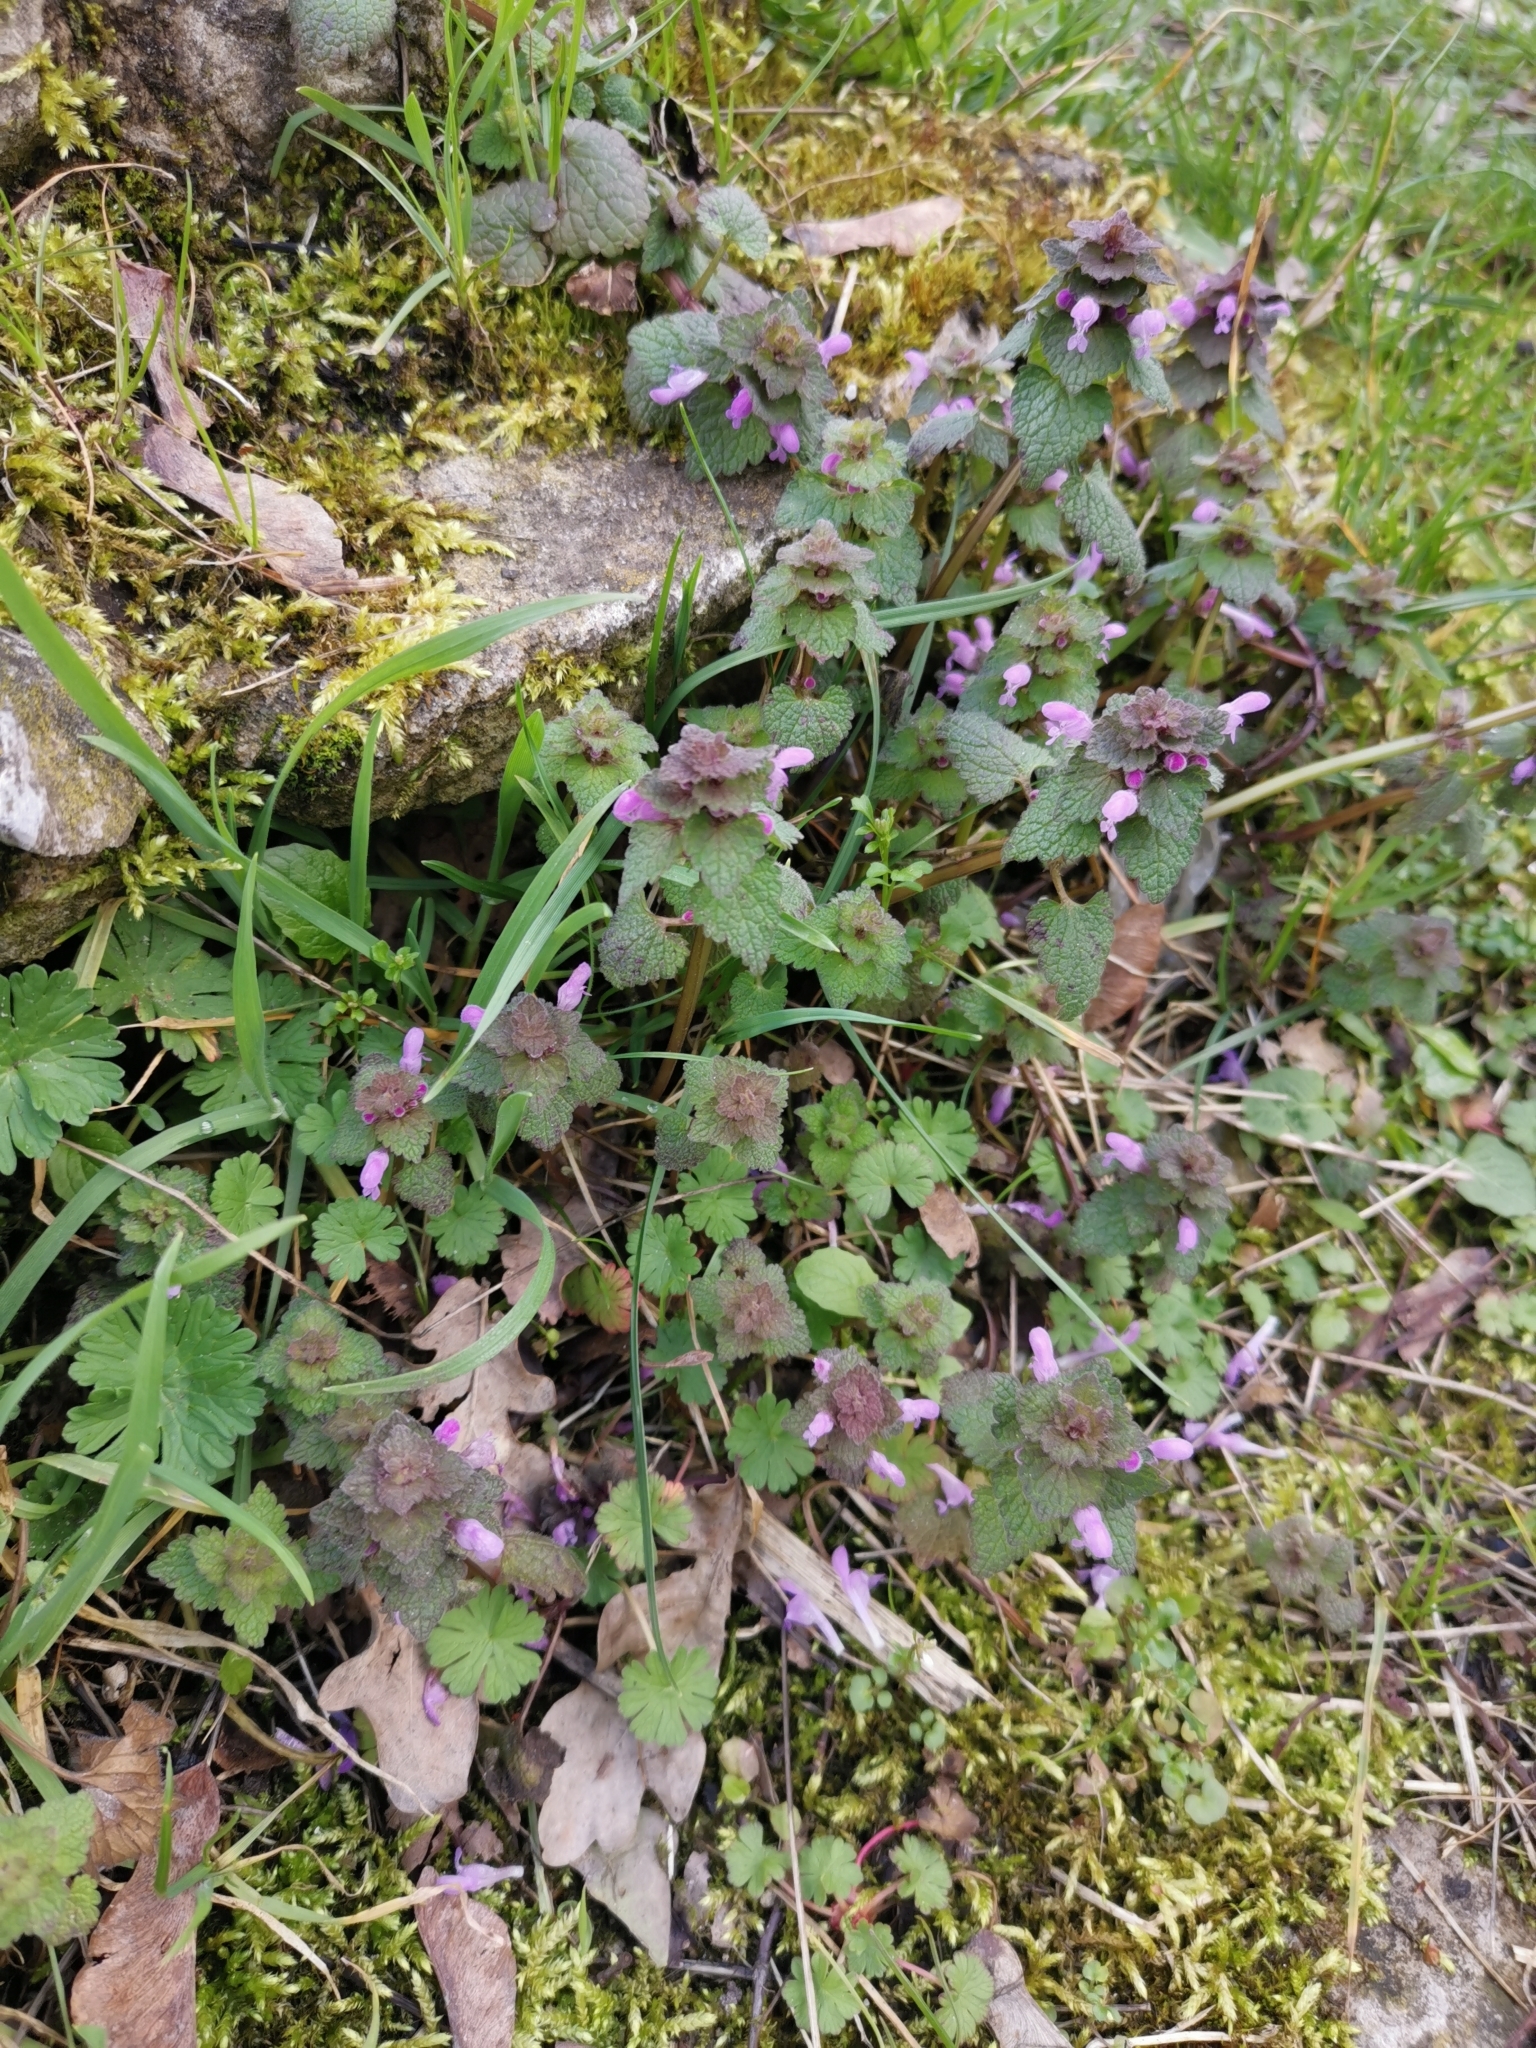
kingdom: Plantae
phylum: Tracheophyta
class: Magnoliopsida
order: Lamiales
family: Lamiaceae
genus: Lamium
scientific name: Lamium purpureum
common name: Red dead-nettle
